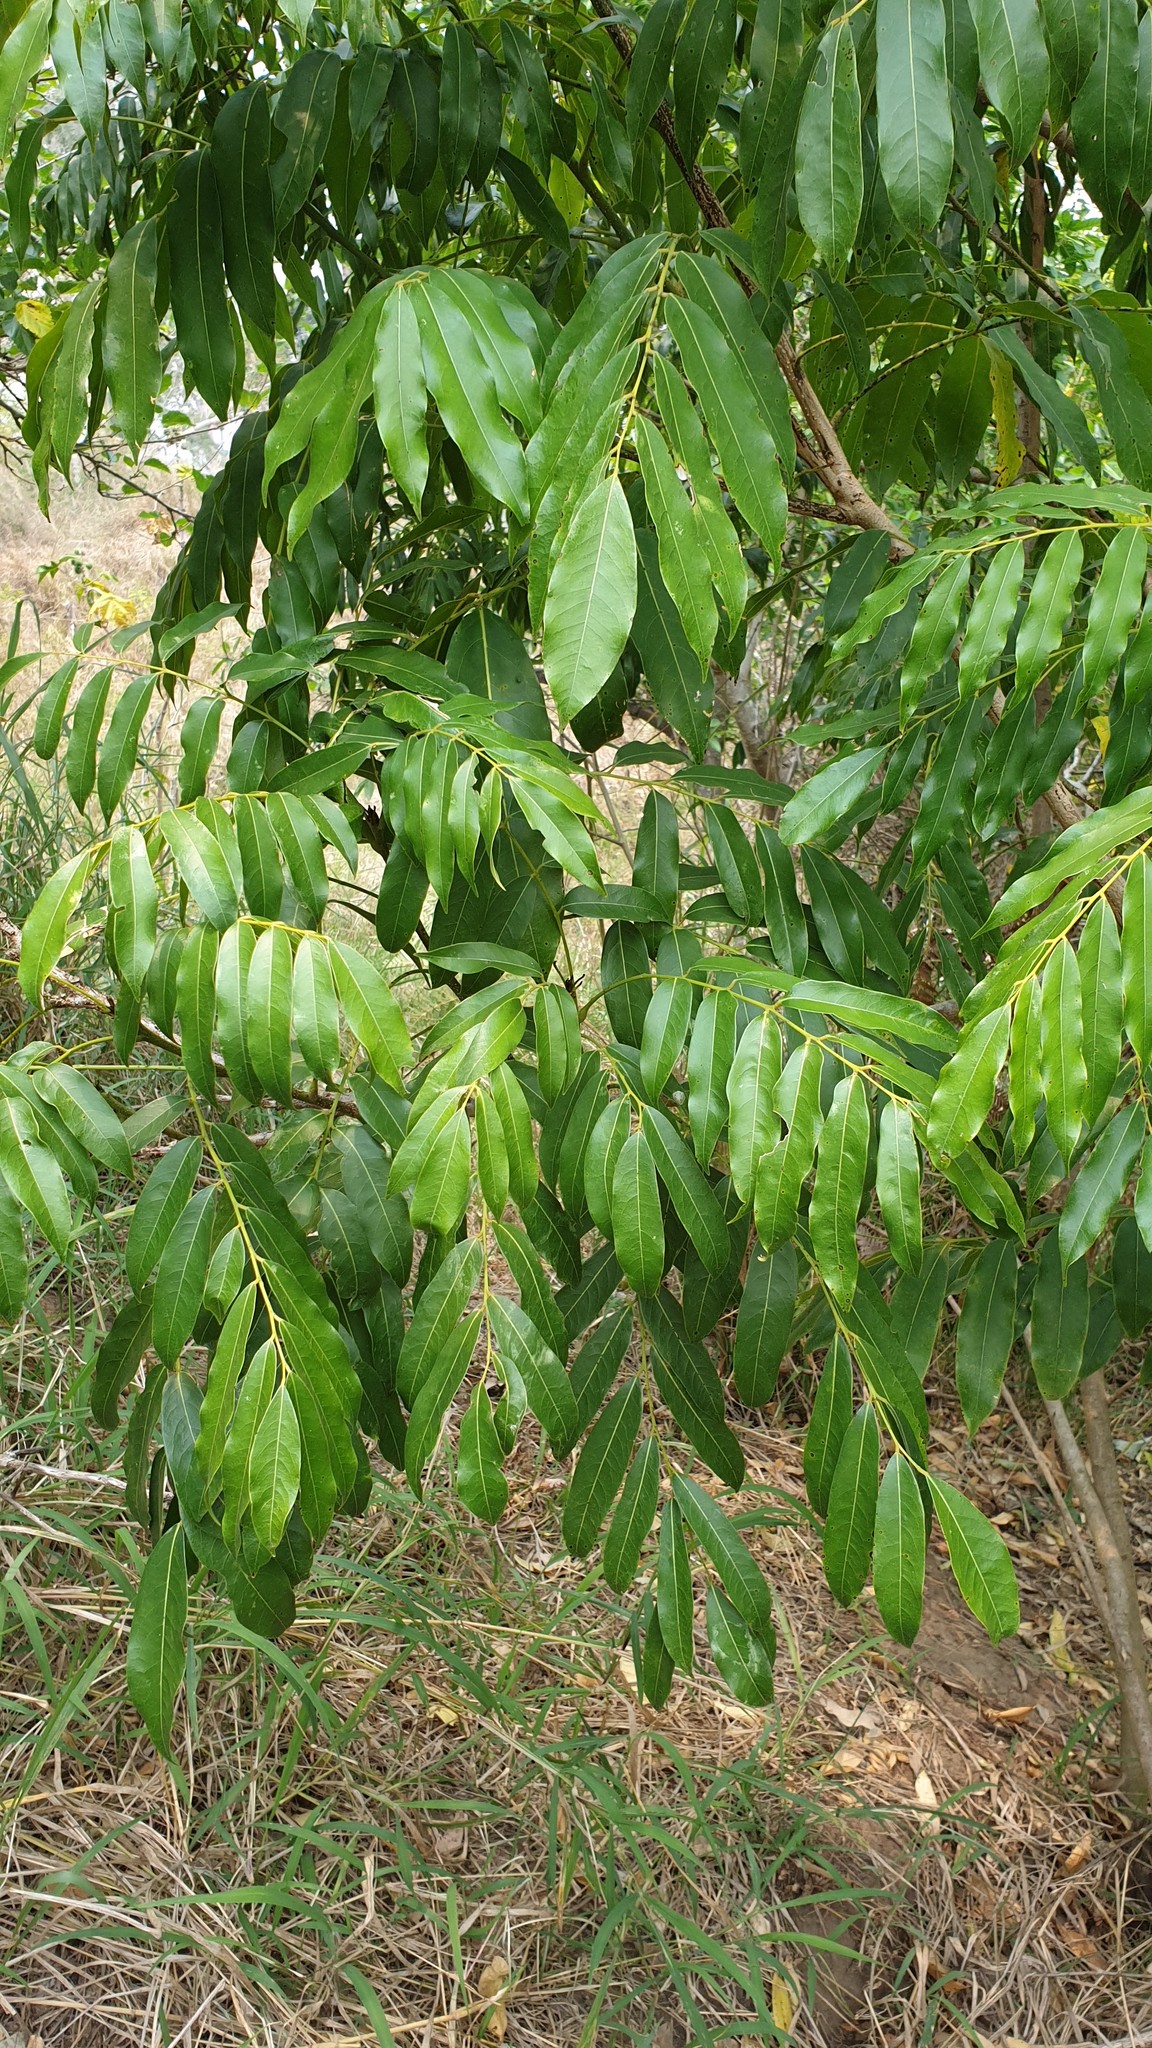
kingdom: Plantae
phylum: Tracheophyta
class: Magnoliopsida
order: Fabales
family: Fabaceae
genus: Castanospermum
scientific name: Castanospermum australe
